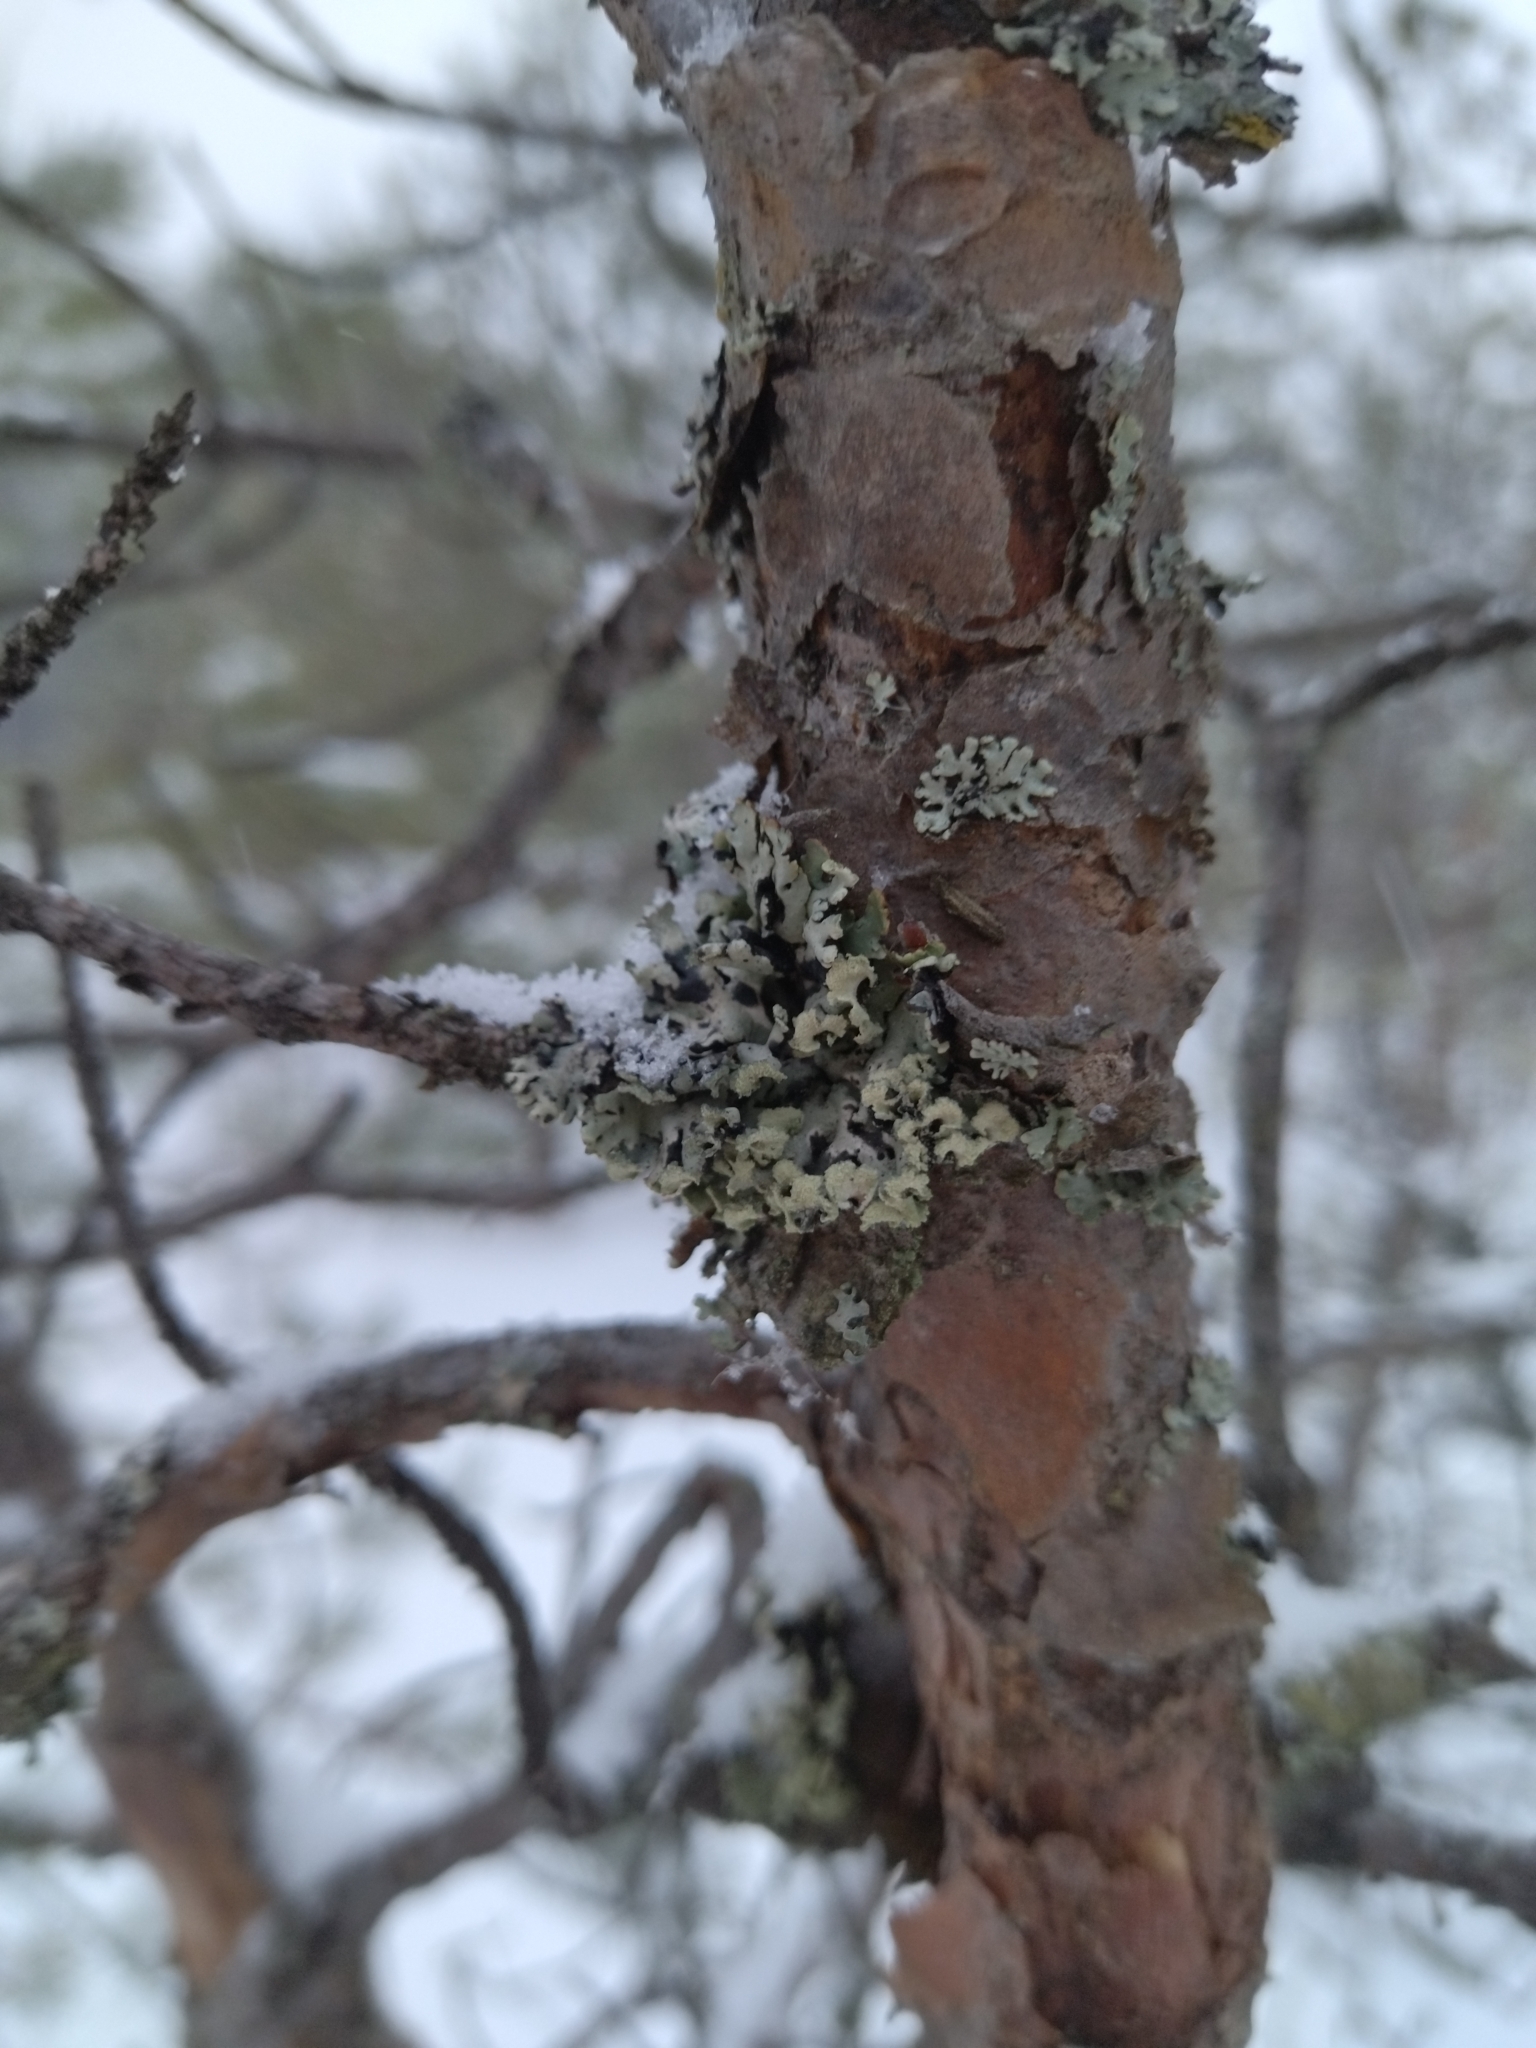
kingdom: Fungi
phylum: Ascomycota
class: Lecanoromycetes
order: Lecanorales
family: Parmeliaceae
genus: Hypogymnia
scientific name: Hypogymnia physodes
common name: Dark crottle
